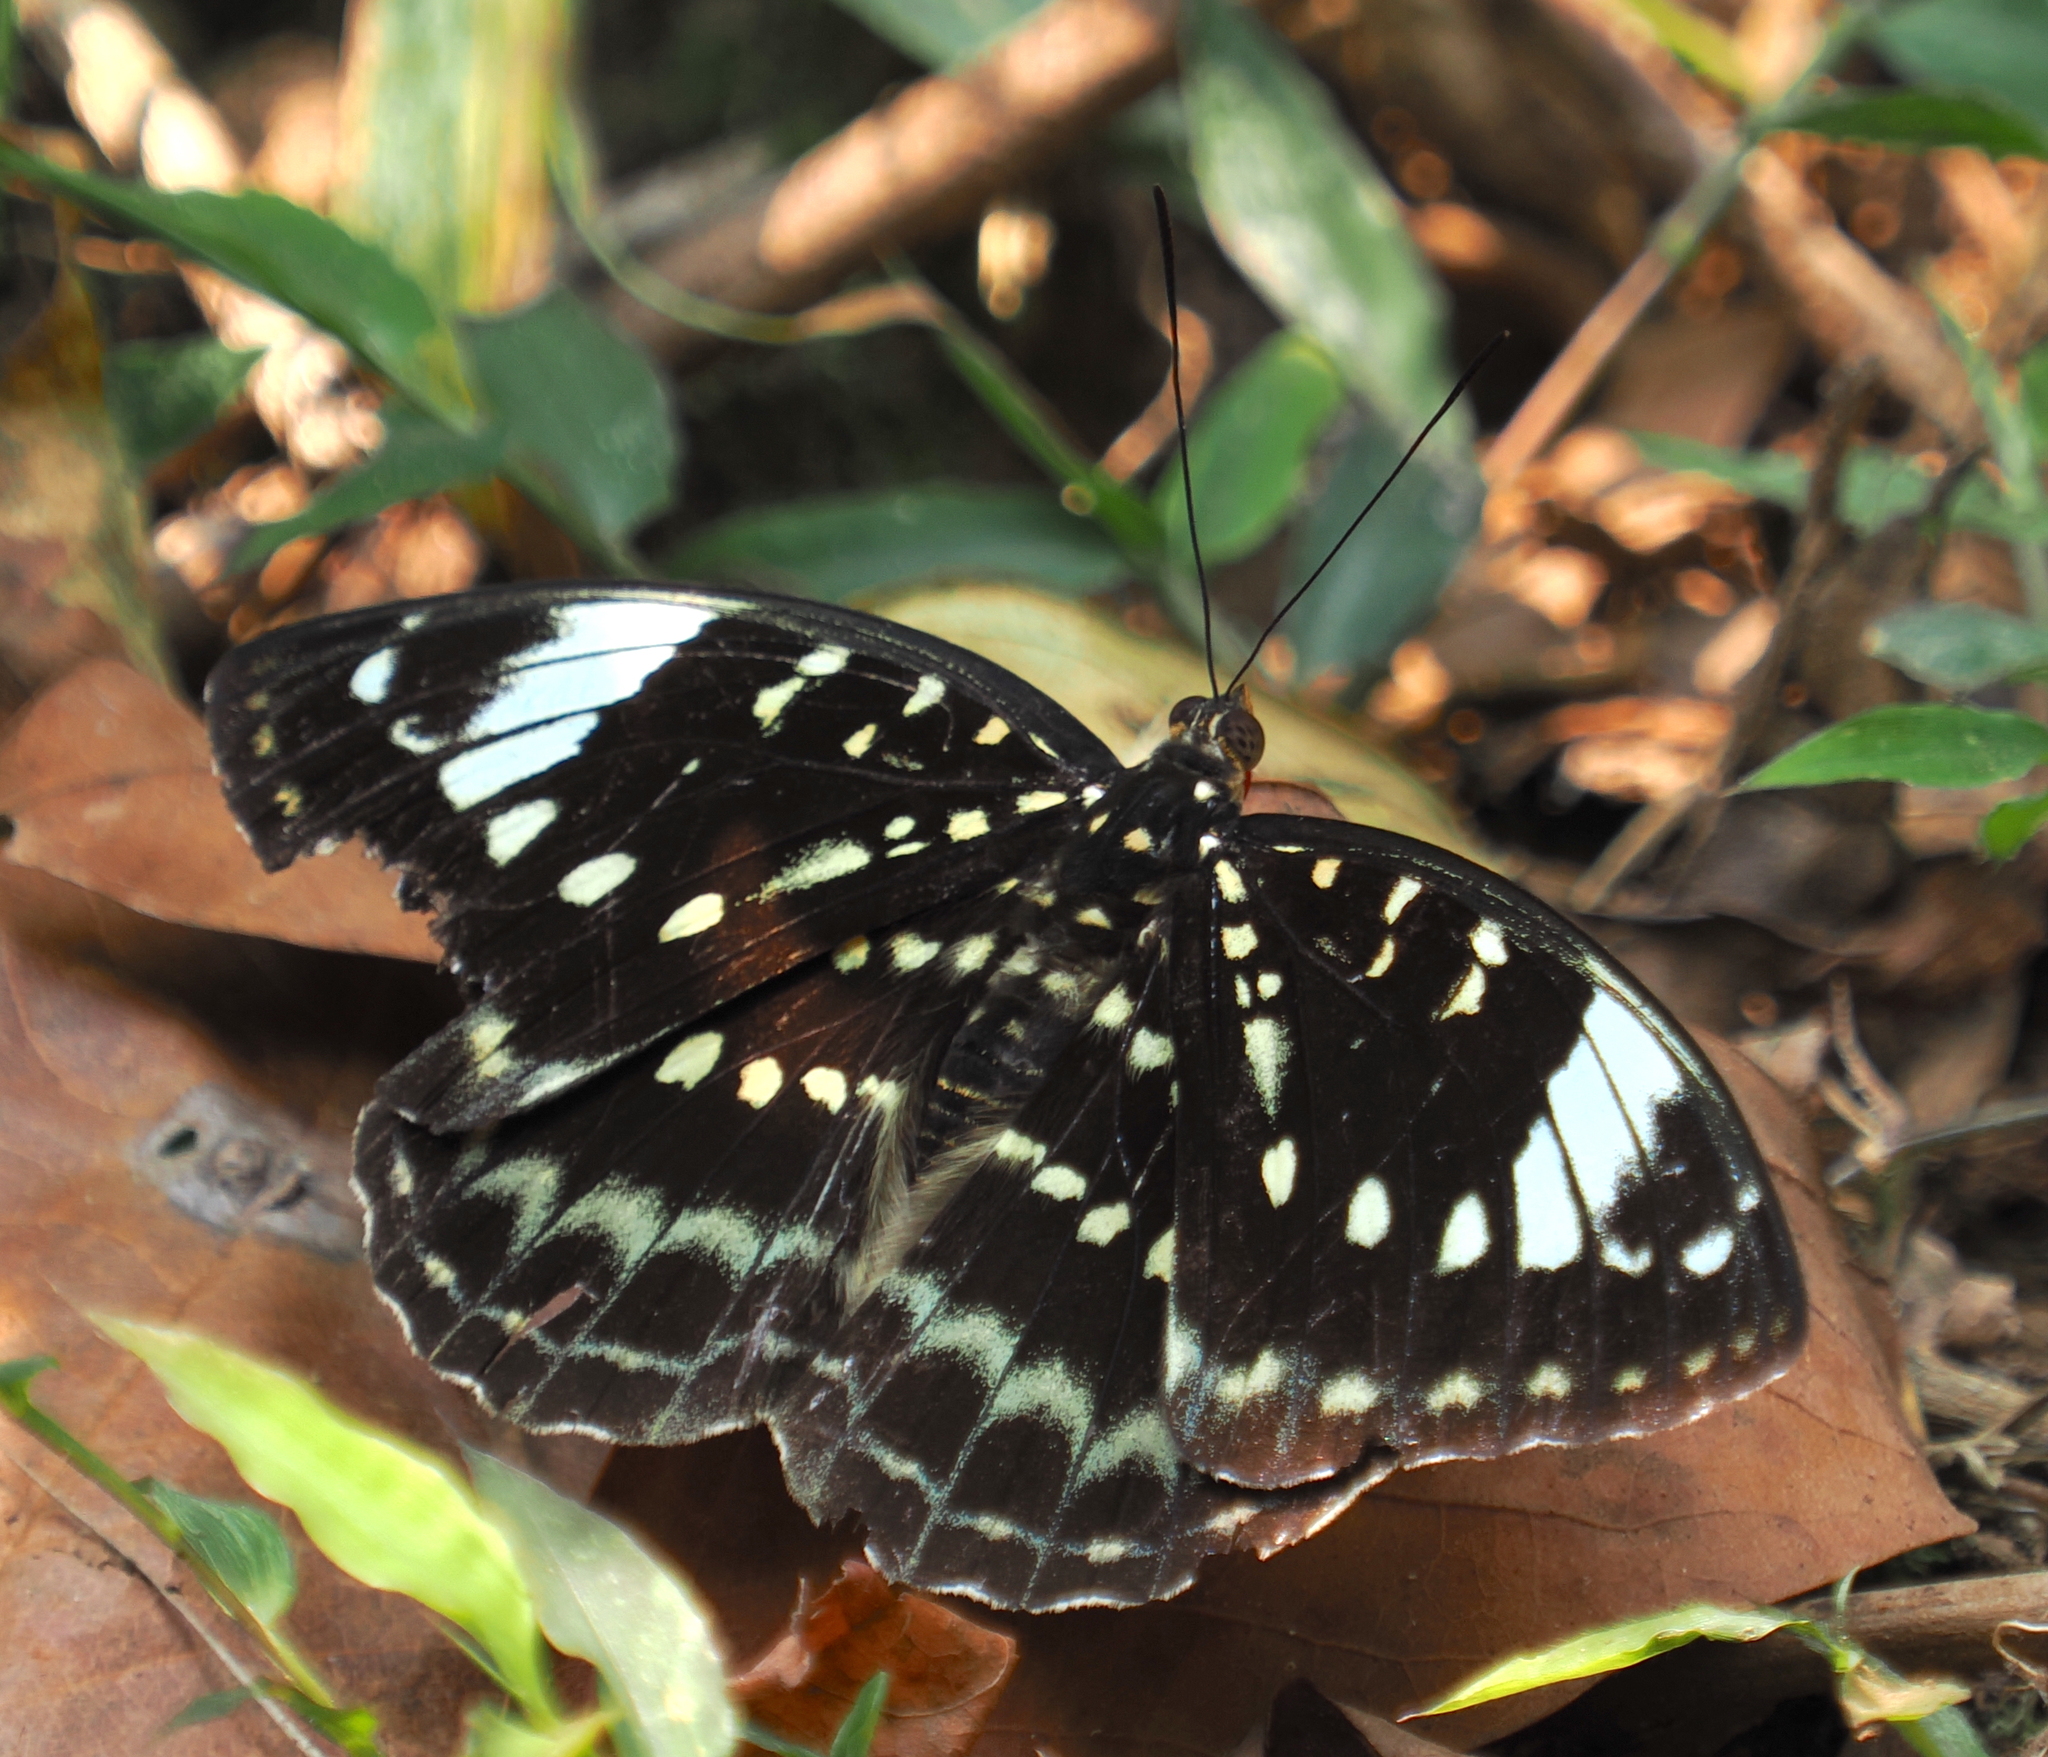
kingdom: Animalia
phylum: Arthropoda
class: Insecta
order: Lepidoptera
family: Nymphalidae
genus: Lexias
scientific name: Lexias dirtea
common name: Black-tipped archduke
